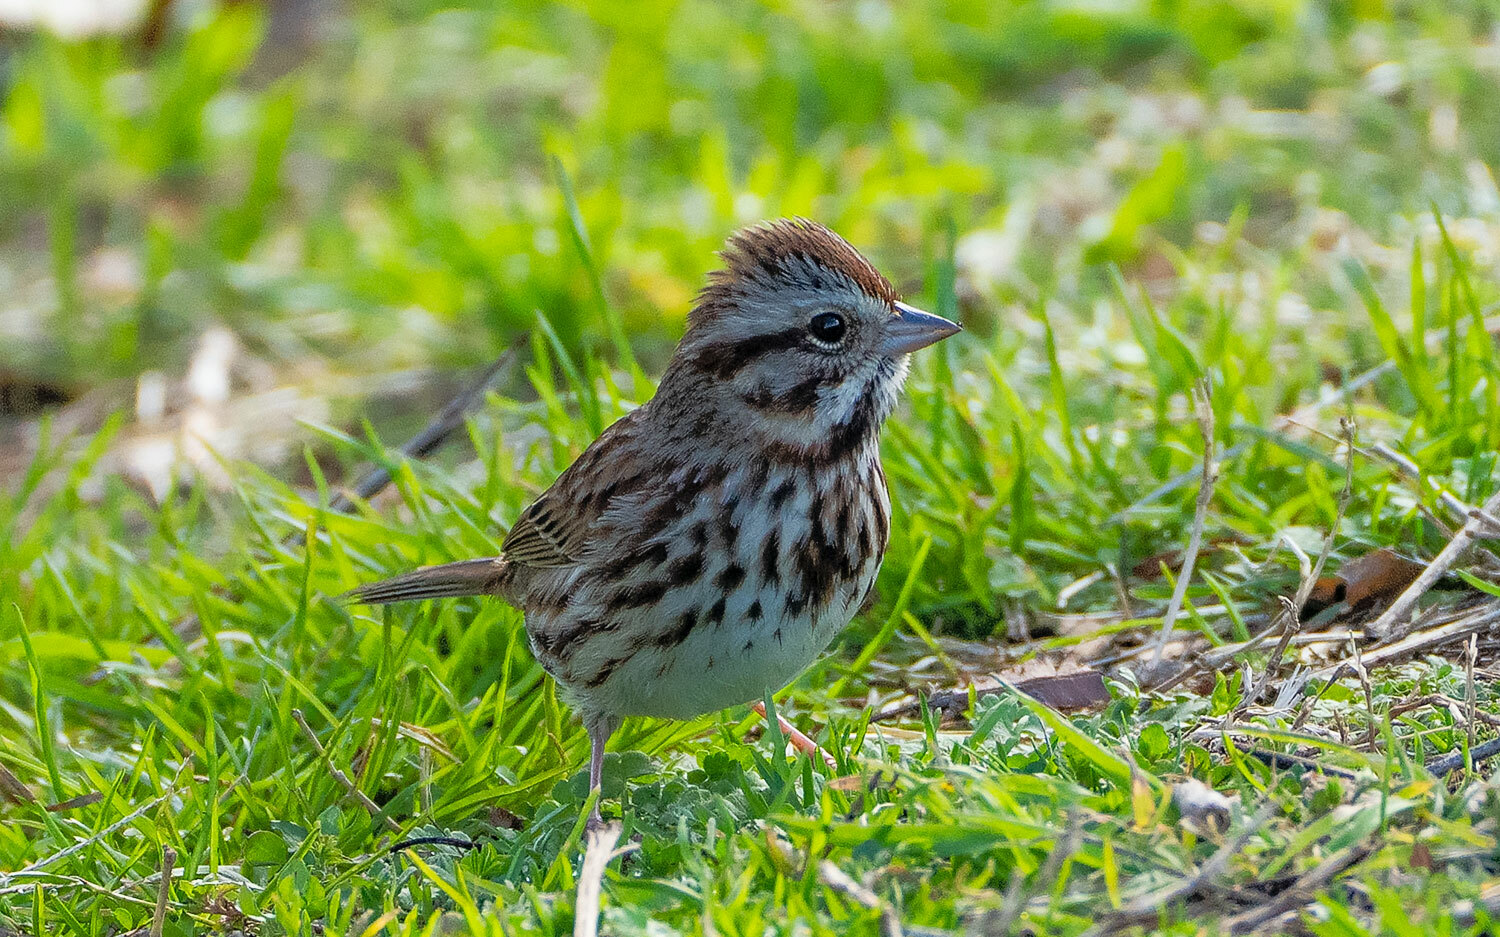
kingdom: Animalia
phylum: Chordata
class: Aves
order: Passeriformes
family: Passerellidae
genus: Melospiza
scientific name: Melospiza melodia
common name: Song sparrow
